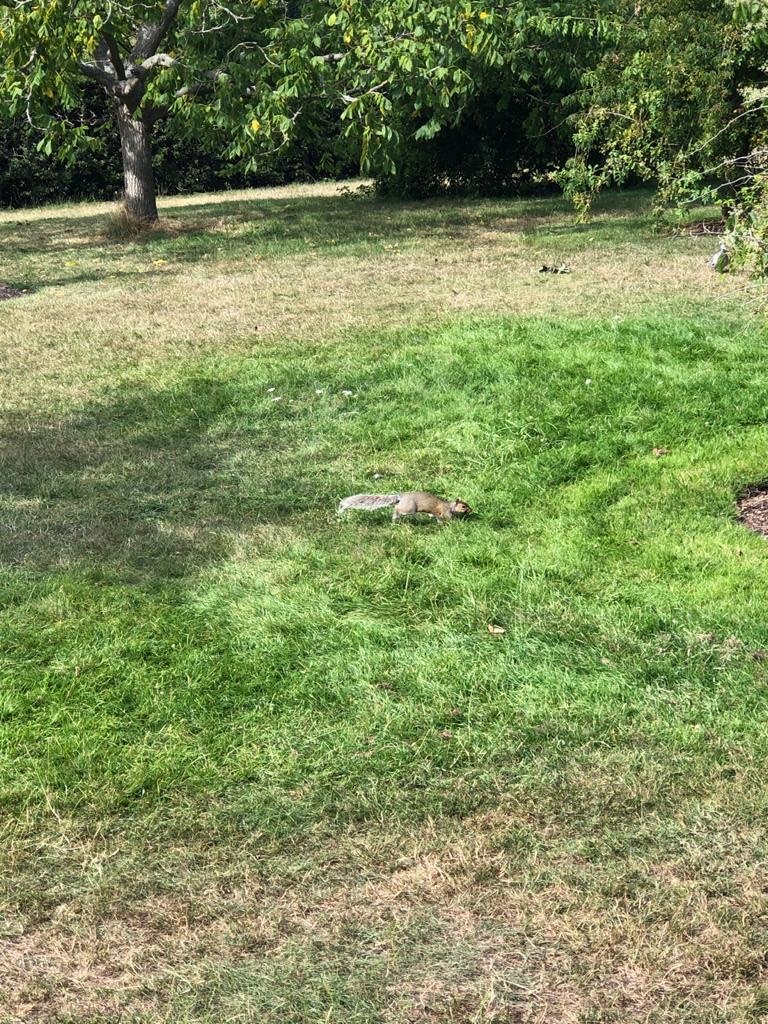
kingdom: Animalia
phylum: Chordata
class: Mammalia
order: Rodentia
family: Sciuridae
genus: Sciurus
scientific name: Sciurus carolinensis
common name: Eastern gray squirrel
